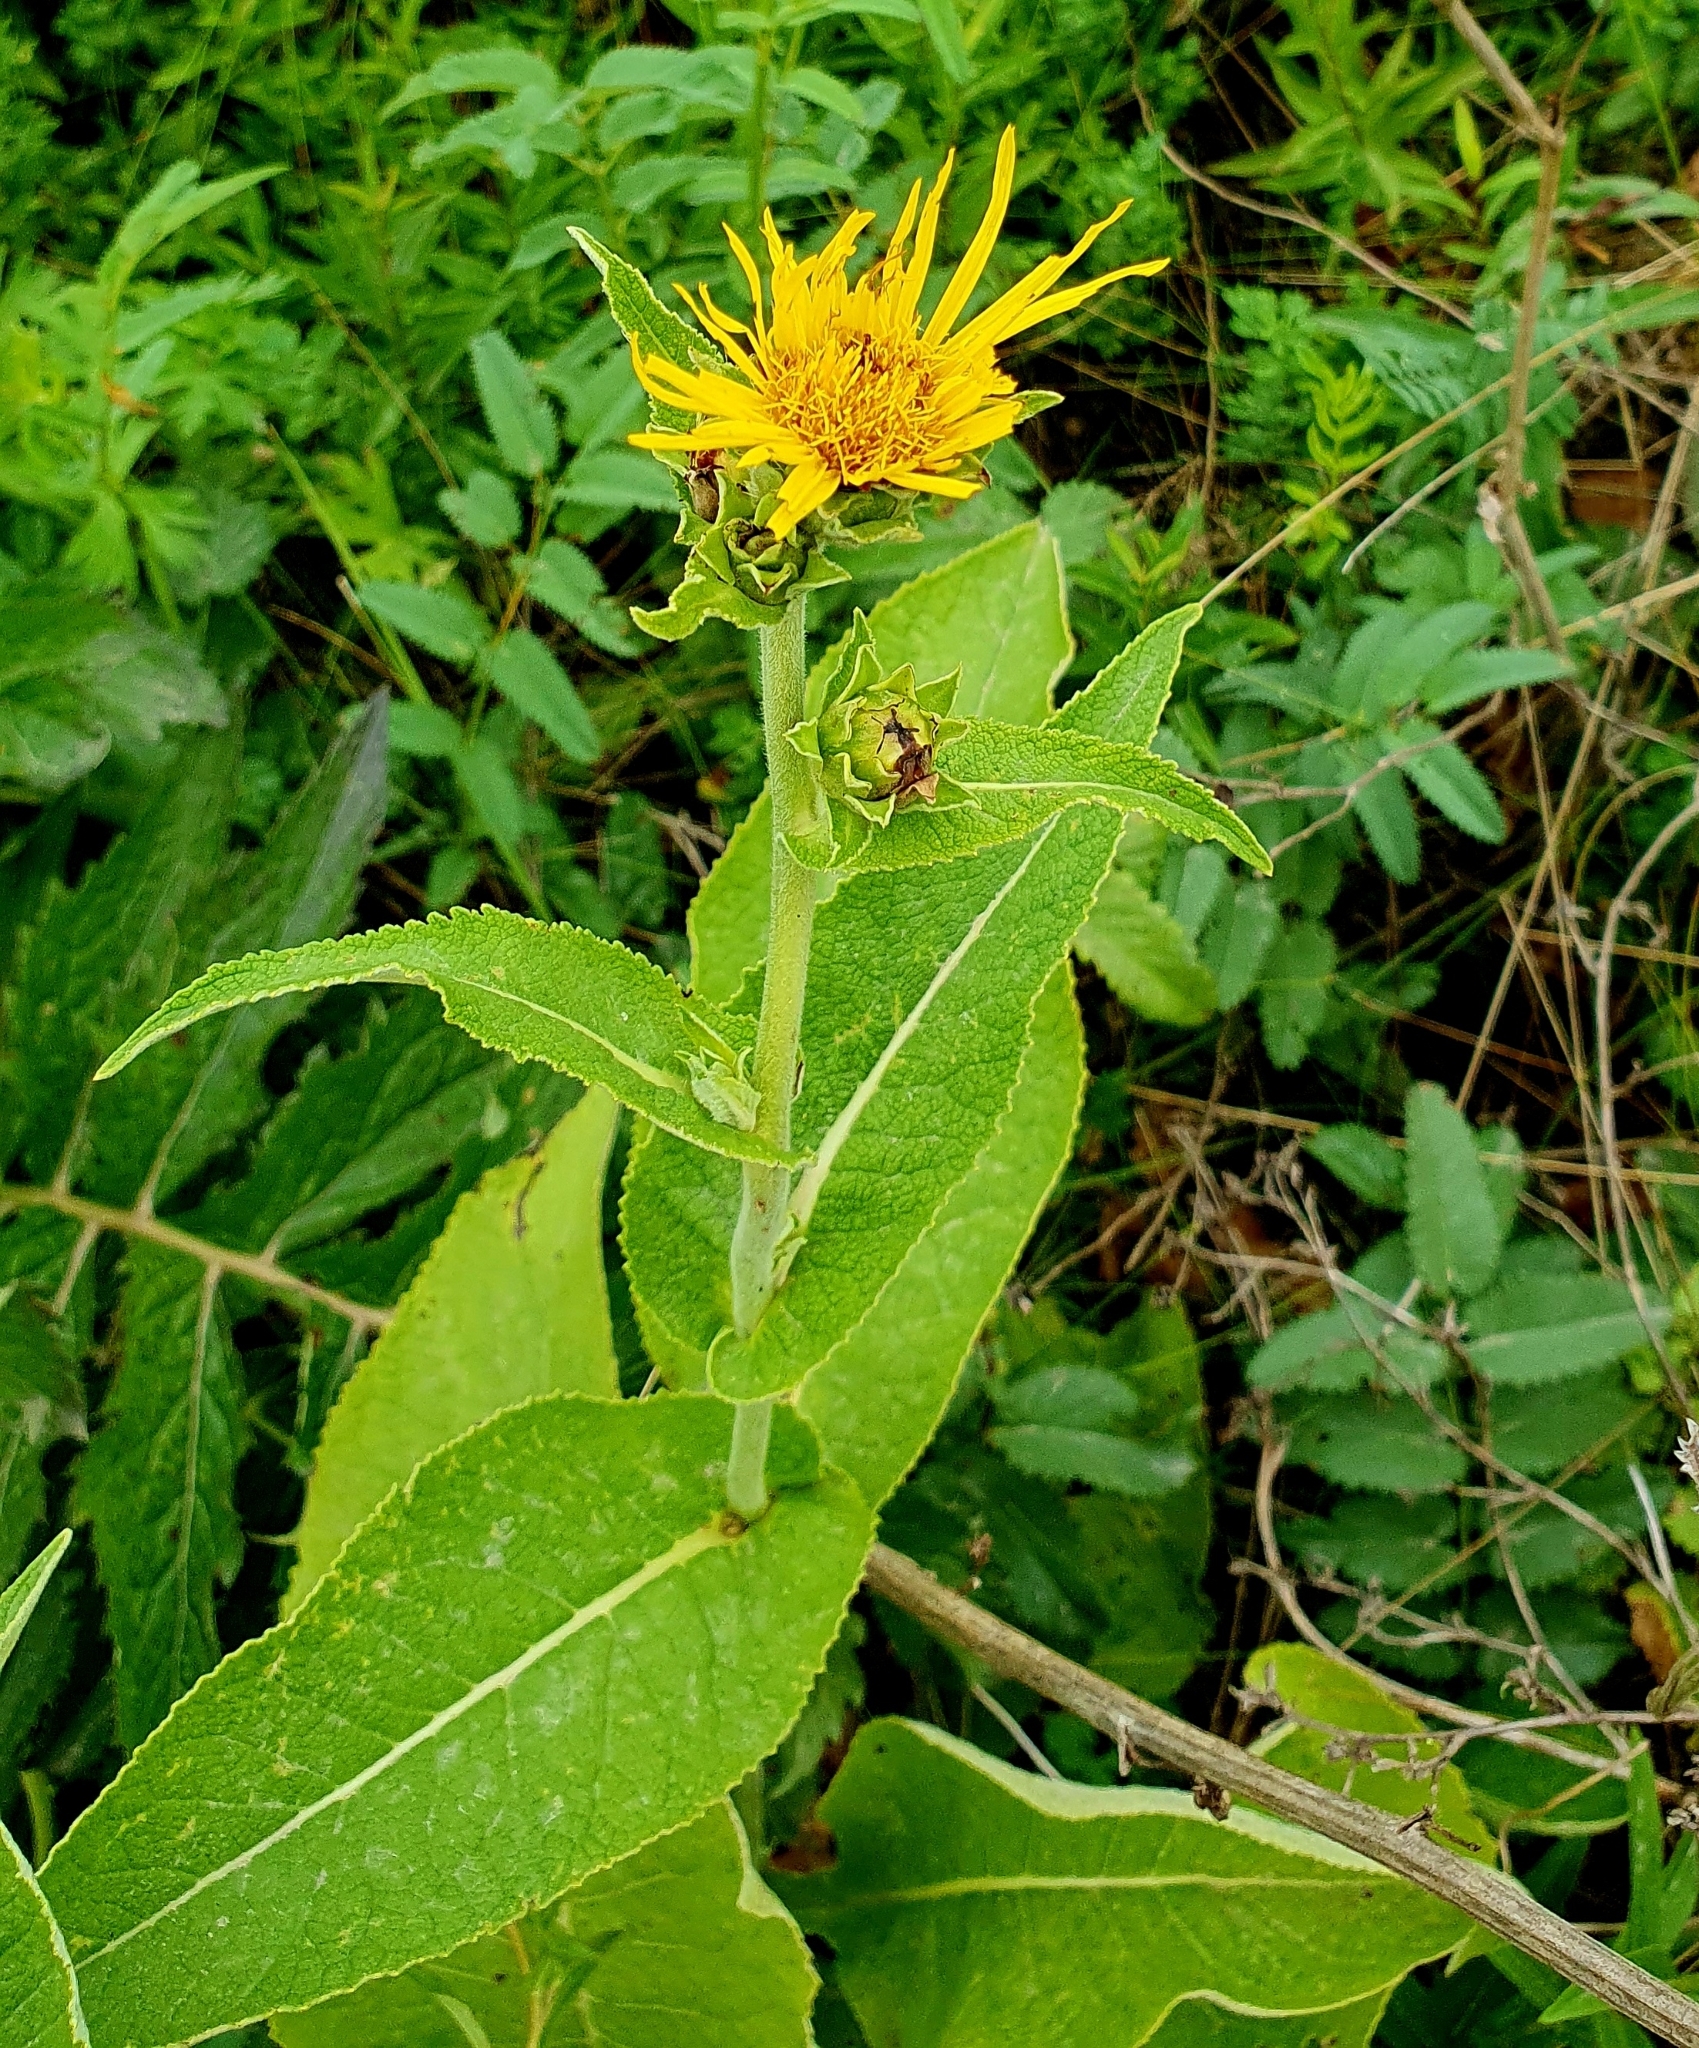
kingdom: Plantae
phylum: Tracheophyta
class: Magnoliopsida
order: Asterales
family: Asteraceae
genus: Inula
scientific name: Inula helenium
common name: Elecampane
